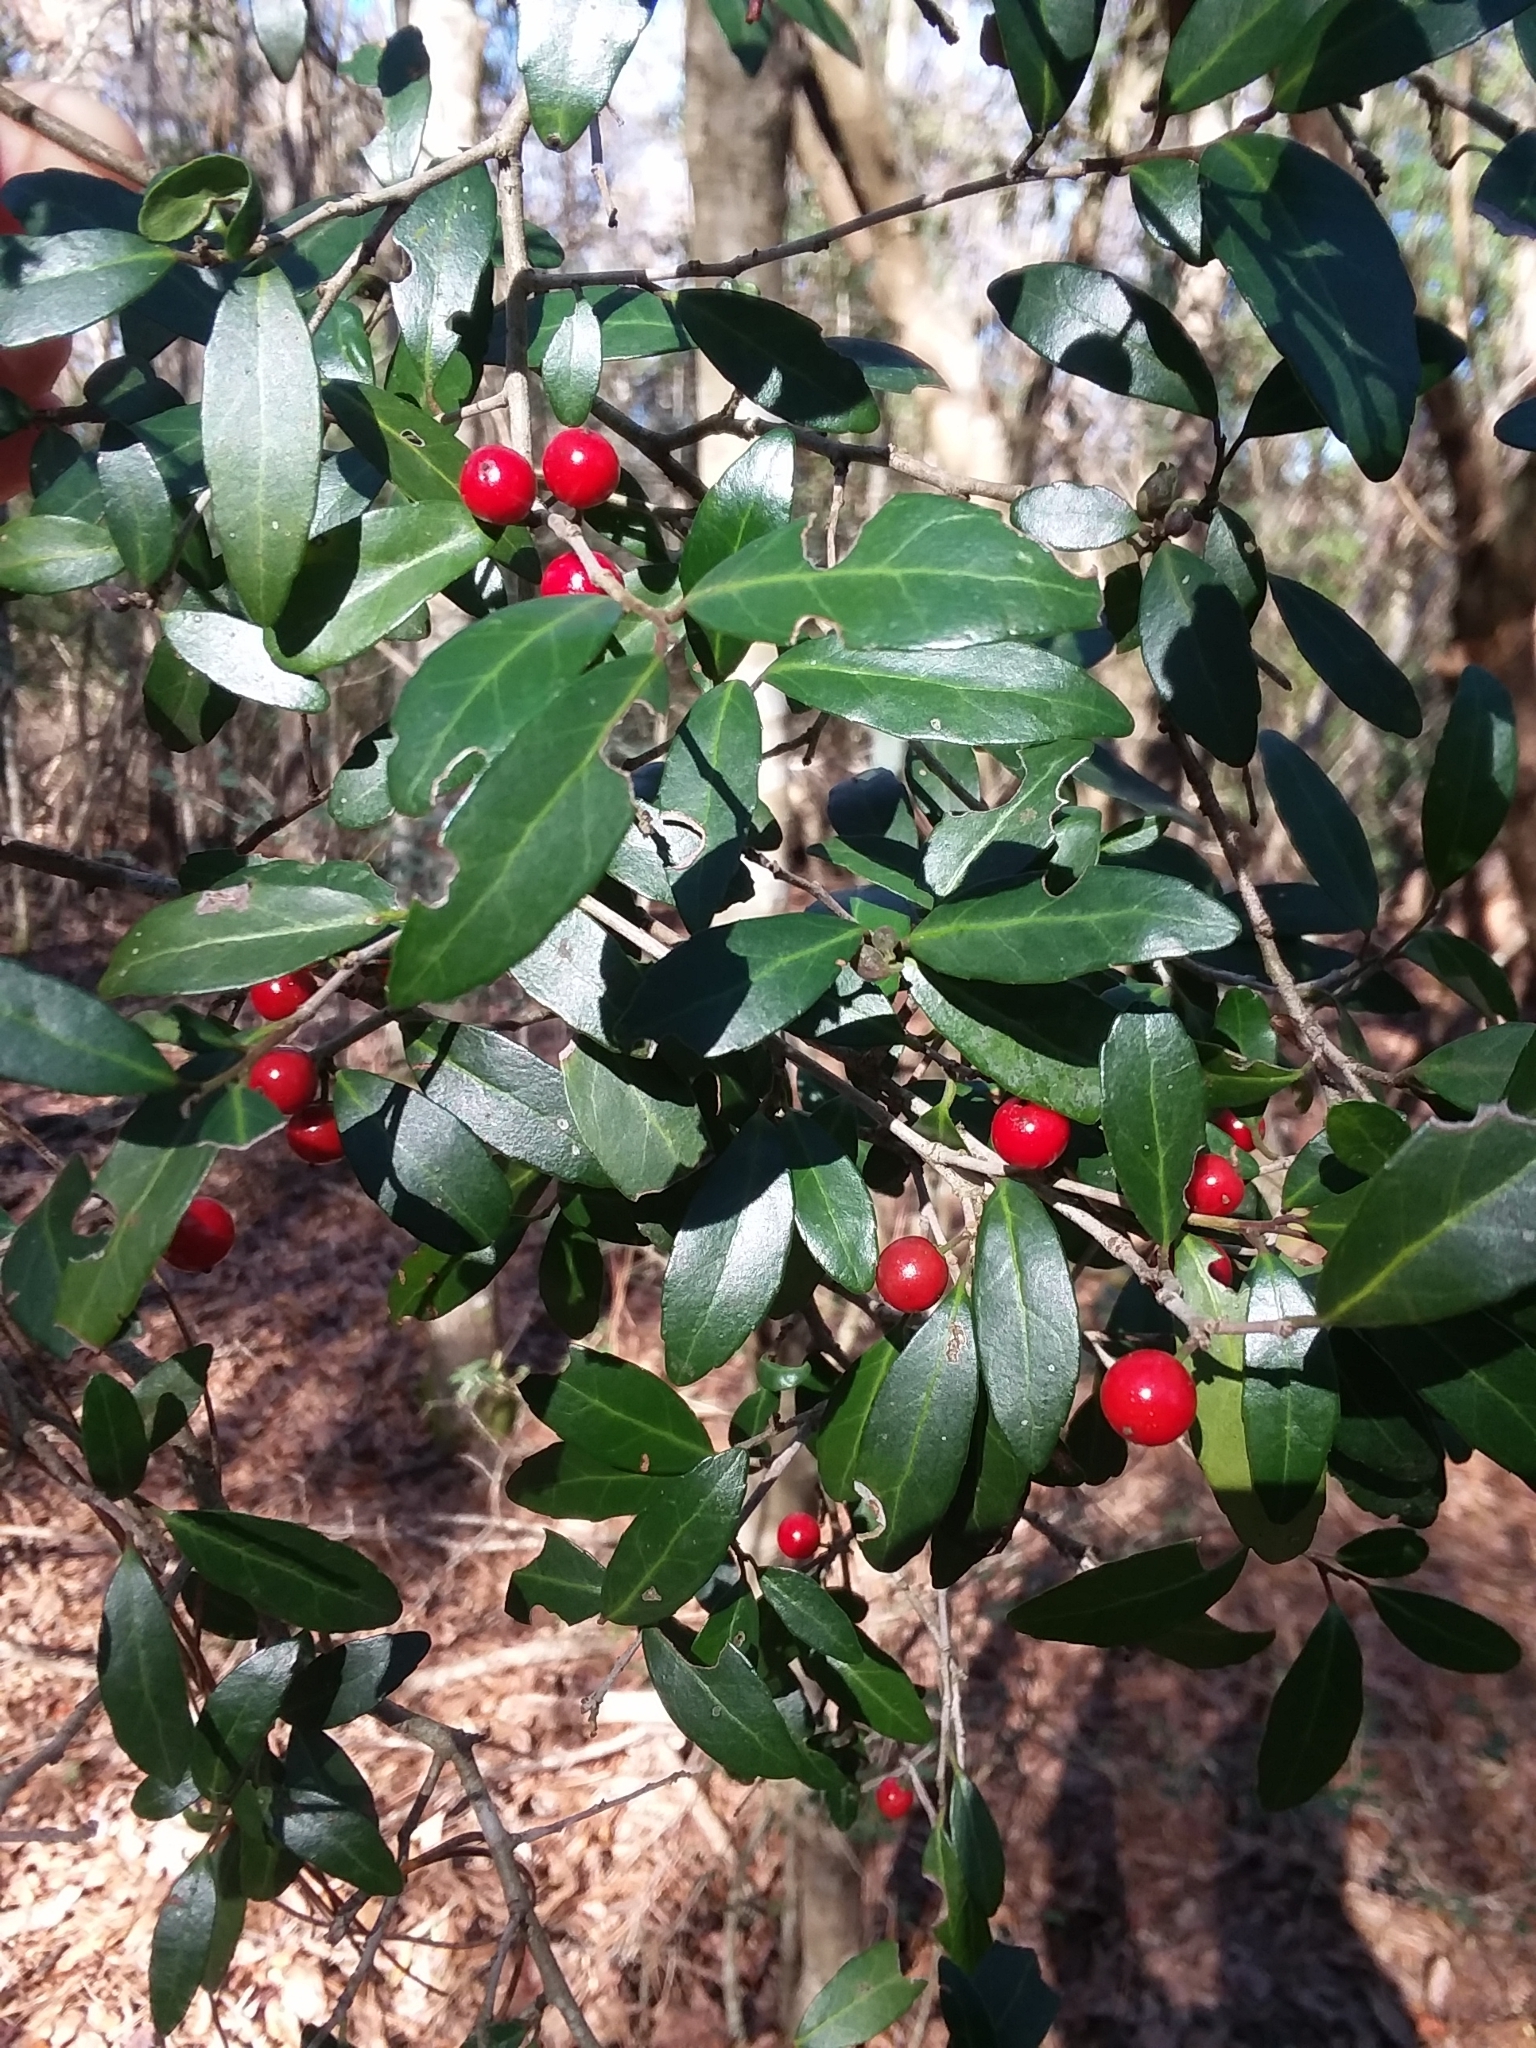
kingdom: Plantae
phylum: Tracheophyta
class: Magnoliopsida
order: Aquifoliales
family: Aquifoliaceae
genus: Ilex
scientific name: Ilex vomitoria
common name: Yaupon holly
